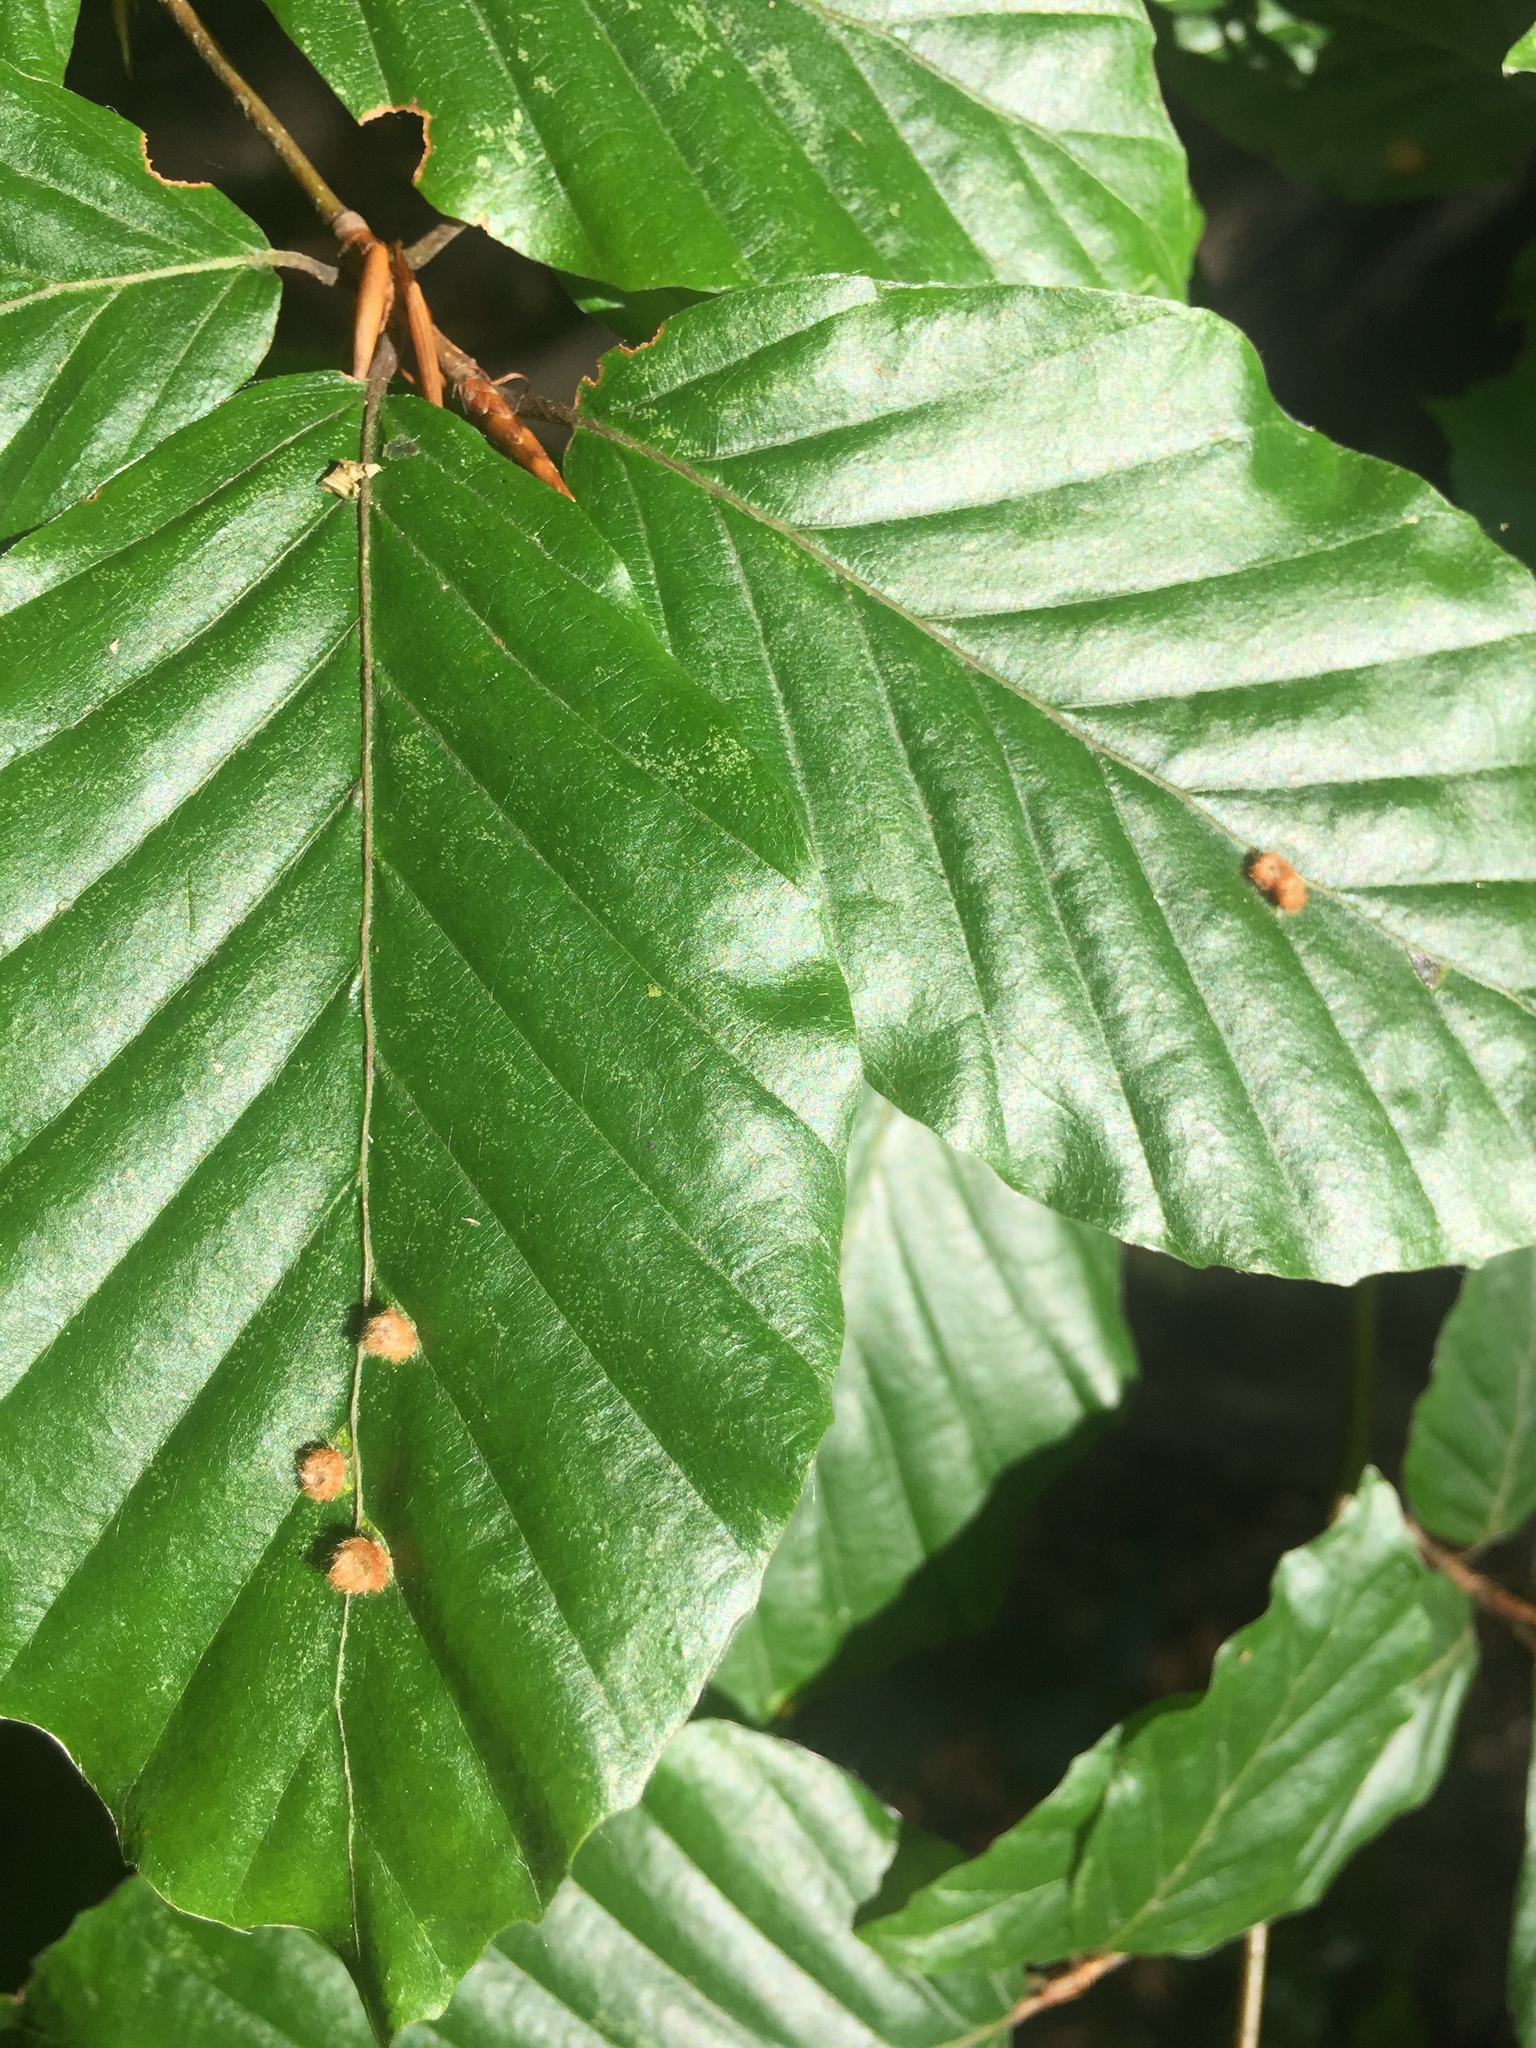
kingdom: Animalia
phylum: Arthropoda
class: Insecta
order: Diptera
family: Cecidomyiidae
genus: Hartigiola
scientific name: Hartigiola annulipes
